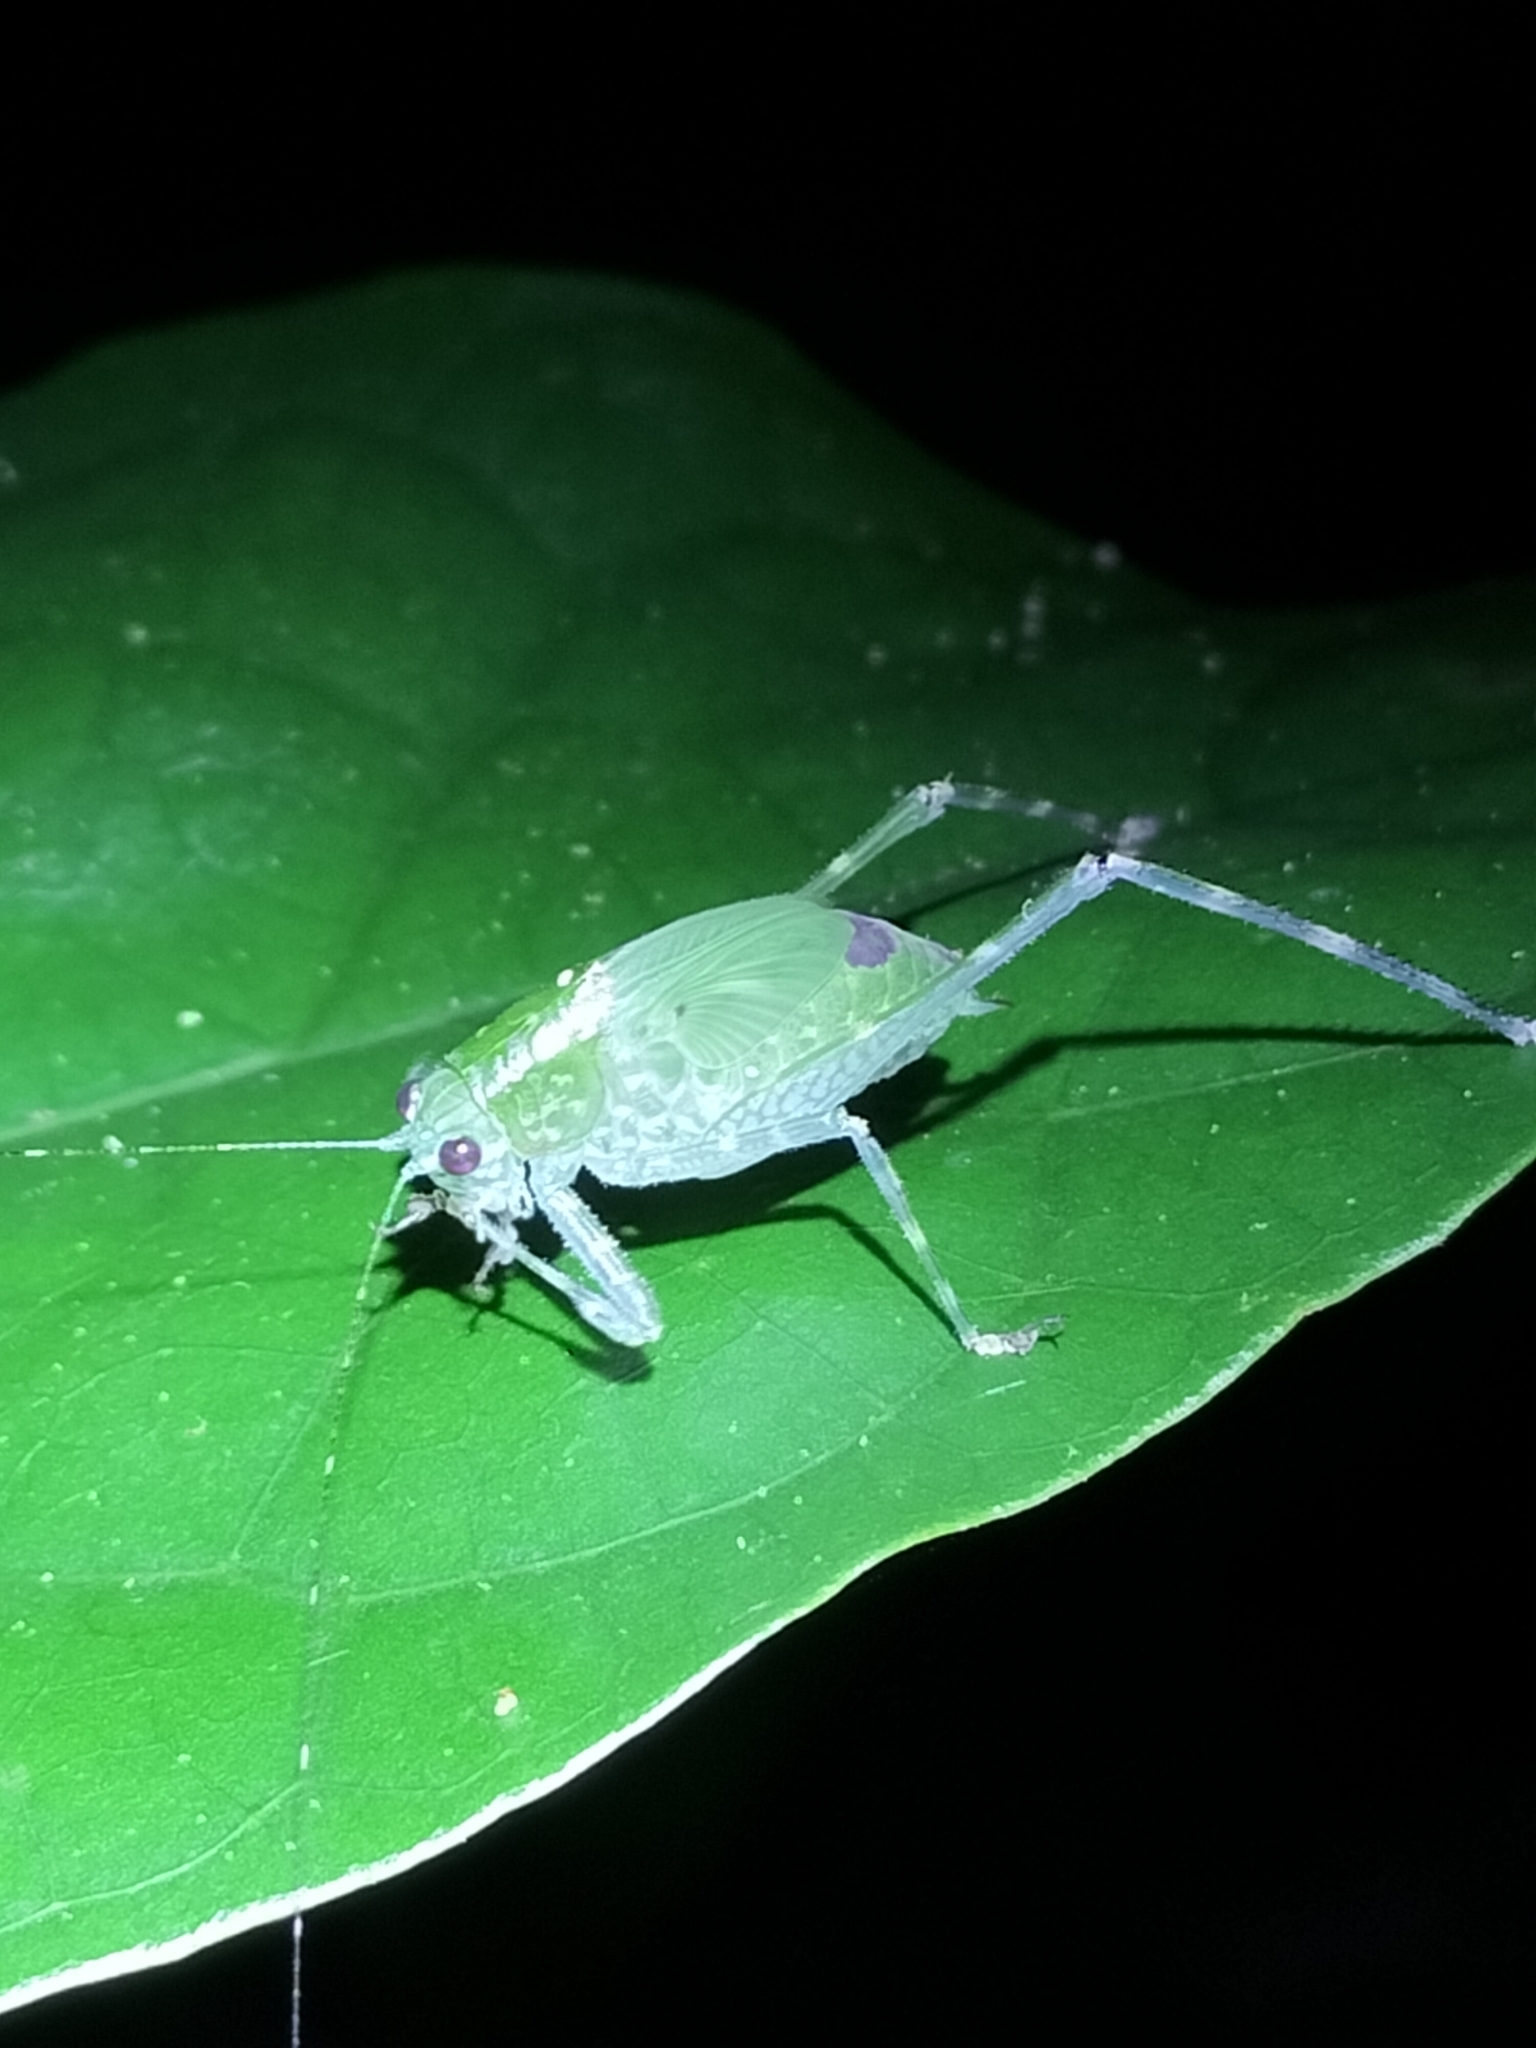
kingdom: Animalia
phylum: Arthropoda
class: Insecta
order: Orthoptera
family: Tettigoniidae
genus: Caedicia
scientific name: Caedicia webberi
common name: Webber's caedicia
